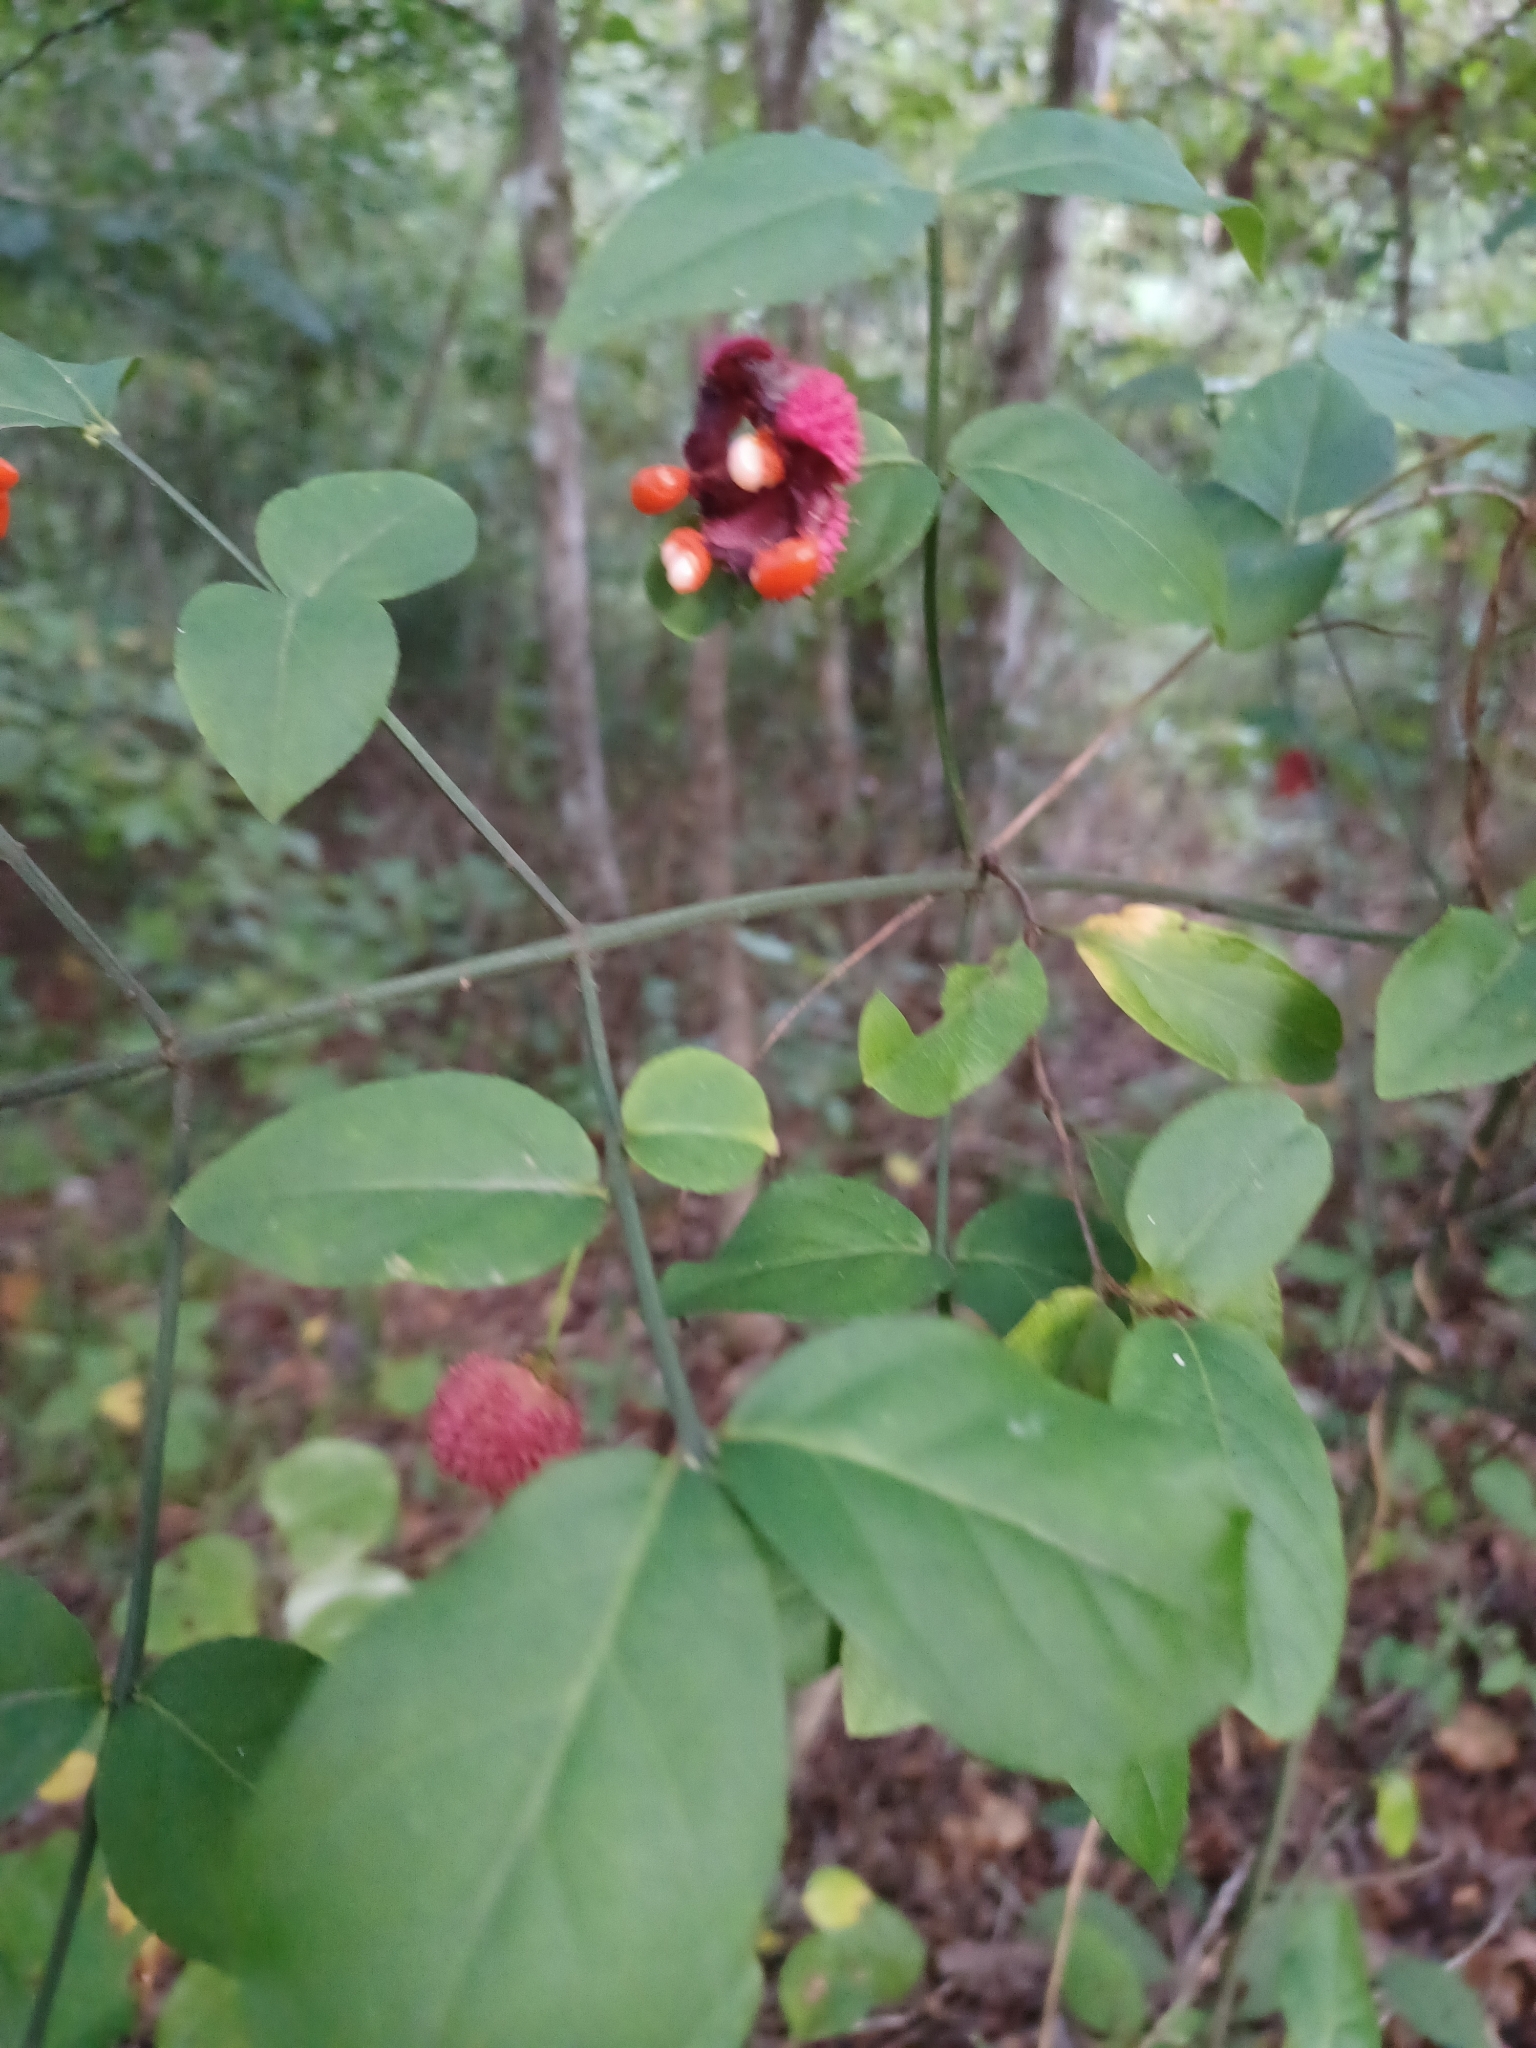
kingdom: Plantae
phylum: Tracheophyta
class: Magnoliopsida
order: Celastrales
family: Celastraceae
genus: Euonymus
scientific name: Euonymus americanus
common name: Bursting-heart
